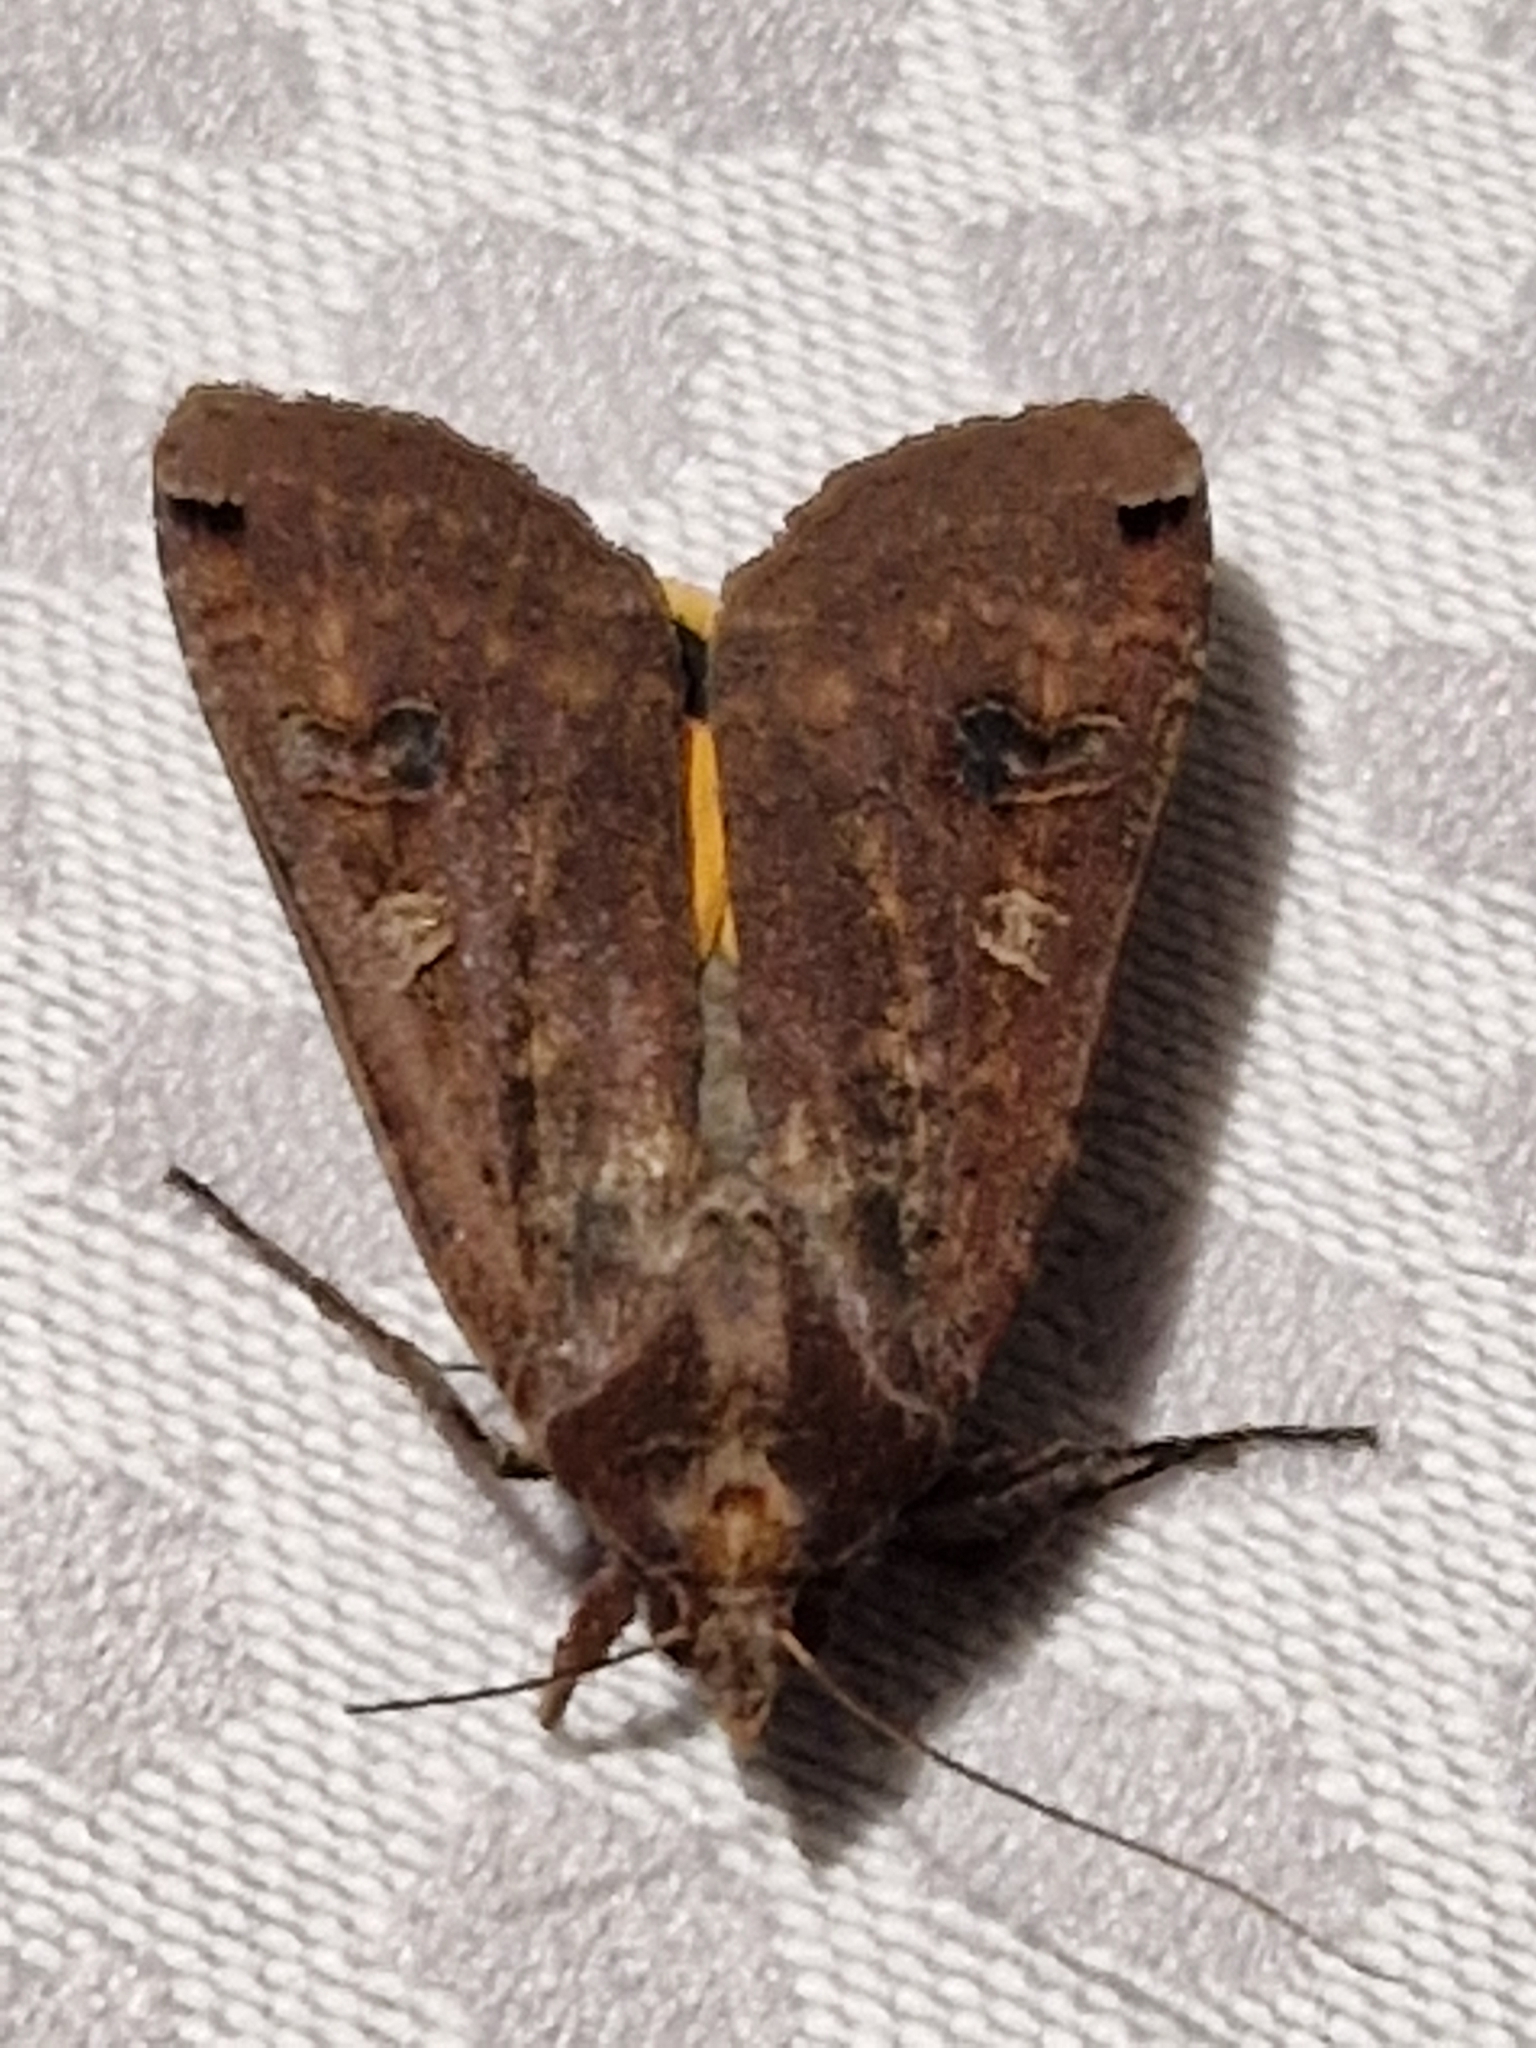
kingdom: Animalia
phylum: Arthropoda
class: Insecta
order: Lepidoptera
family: Noctuidae
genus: Noctua
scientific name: Noctua pronuba
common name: Large yellow underwing
